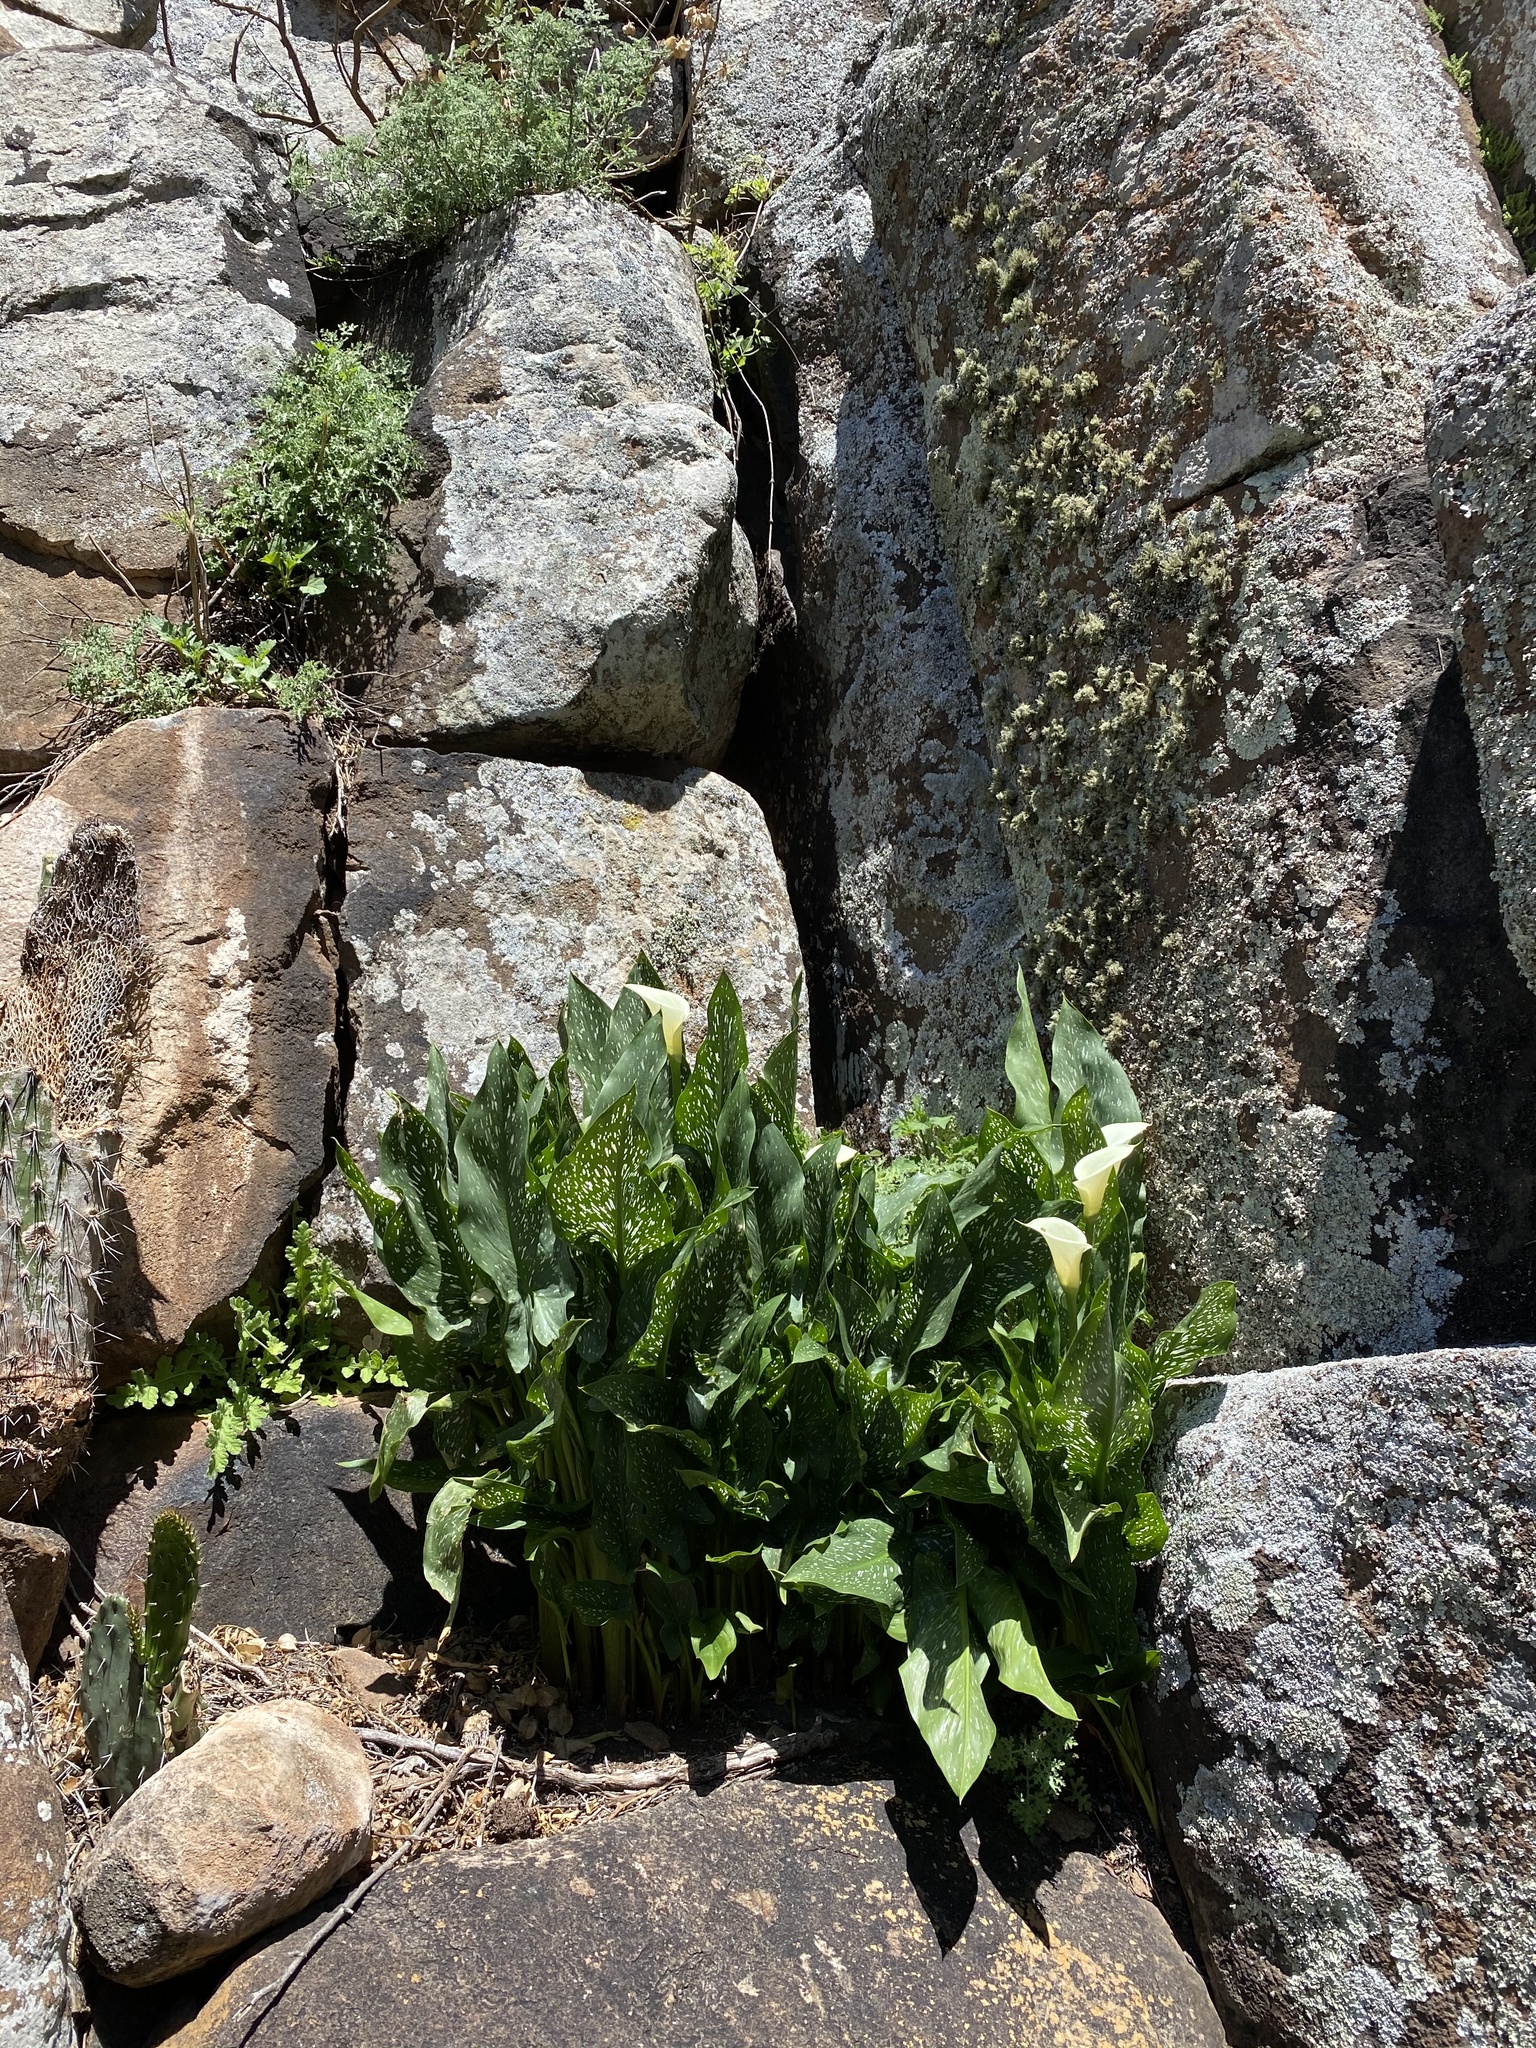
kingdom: Plantae
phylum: Tracheophyta
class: Liliopsida
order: Alismatales
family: Araceae
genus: Zantedeschia
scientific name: Zantedeschia albomaculata
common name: Spotted calla lily
